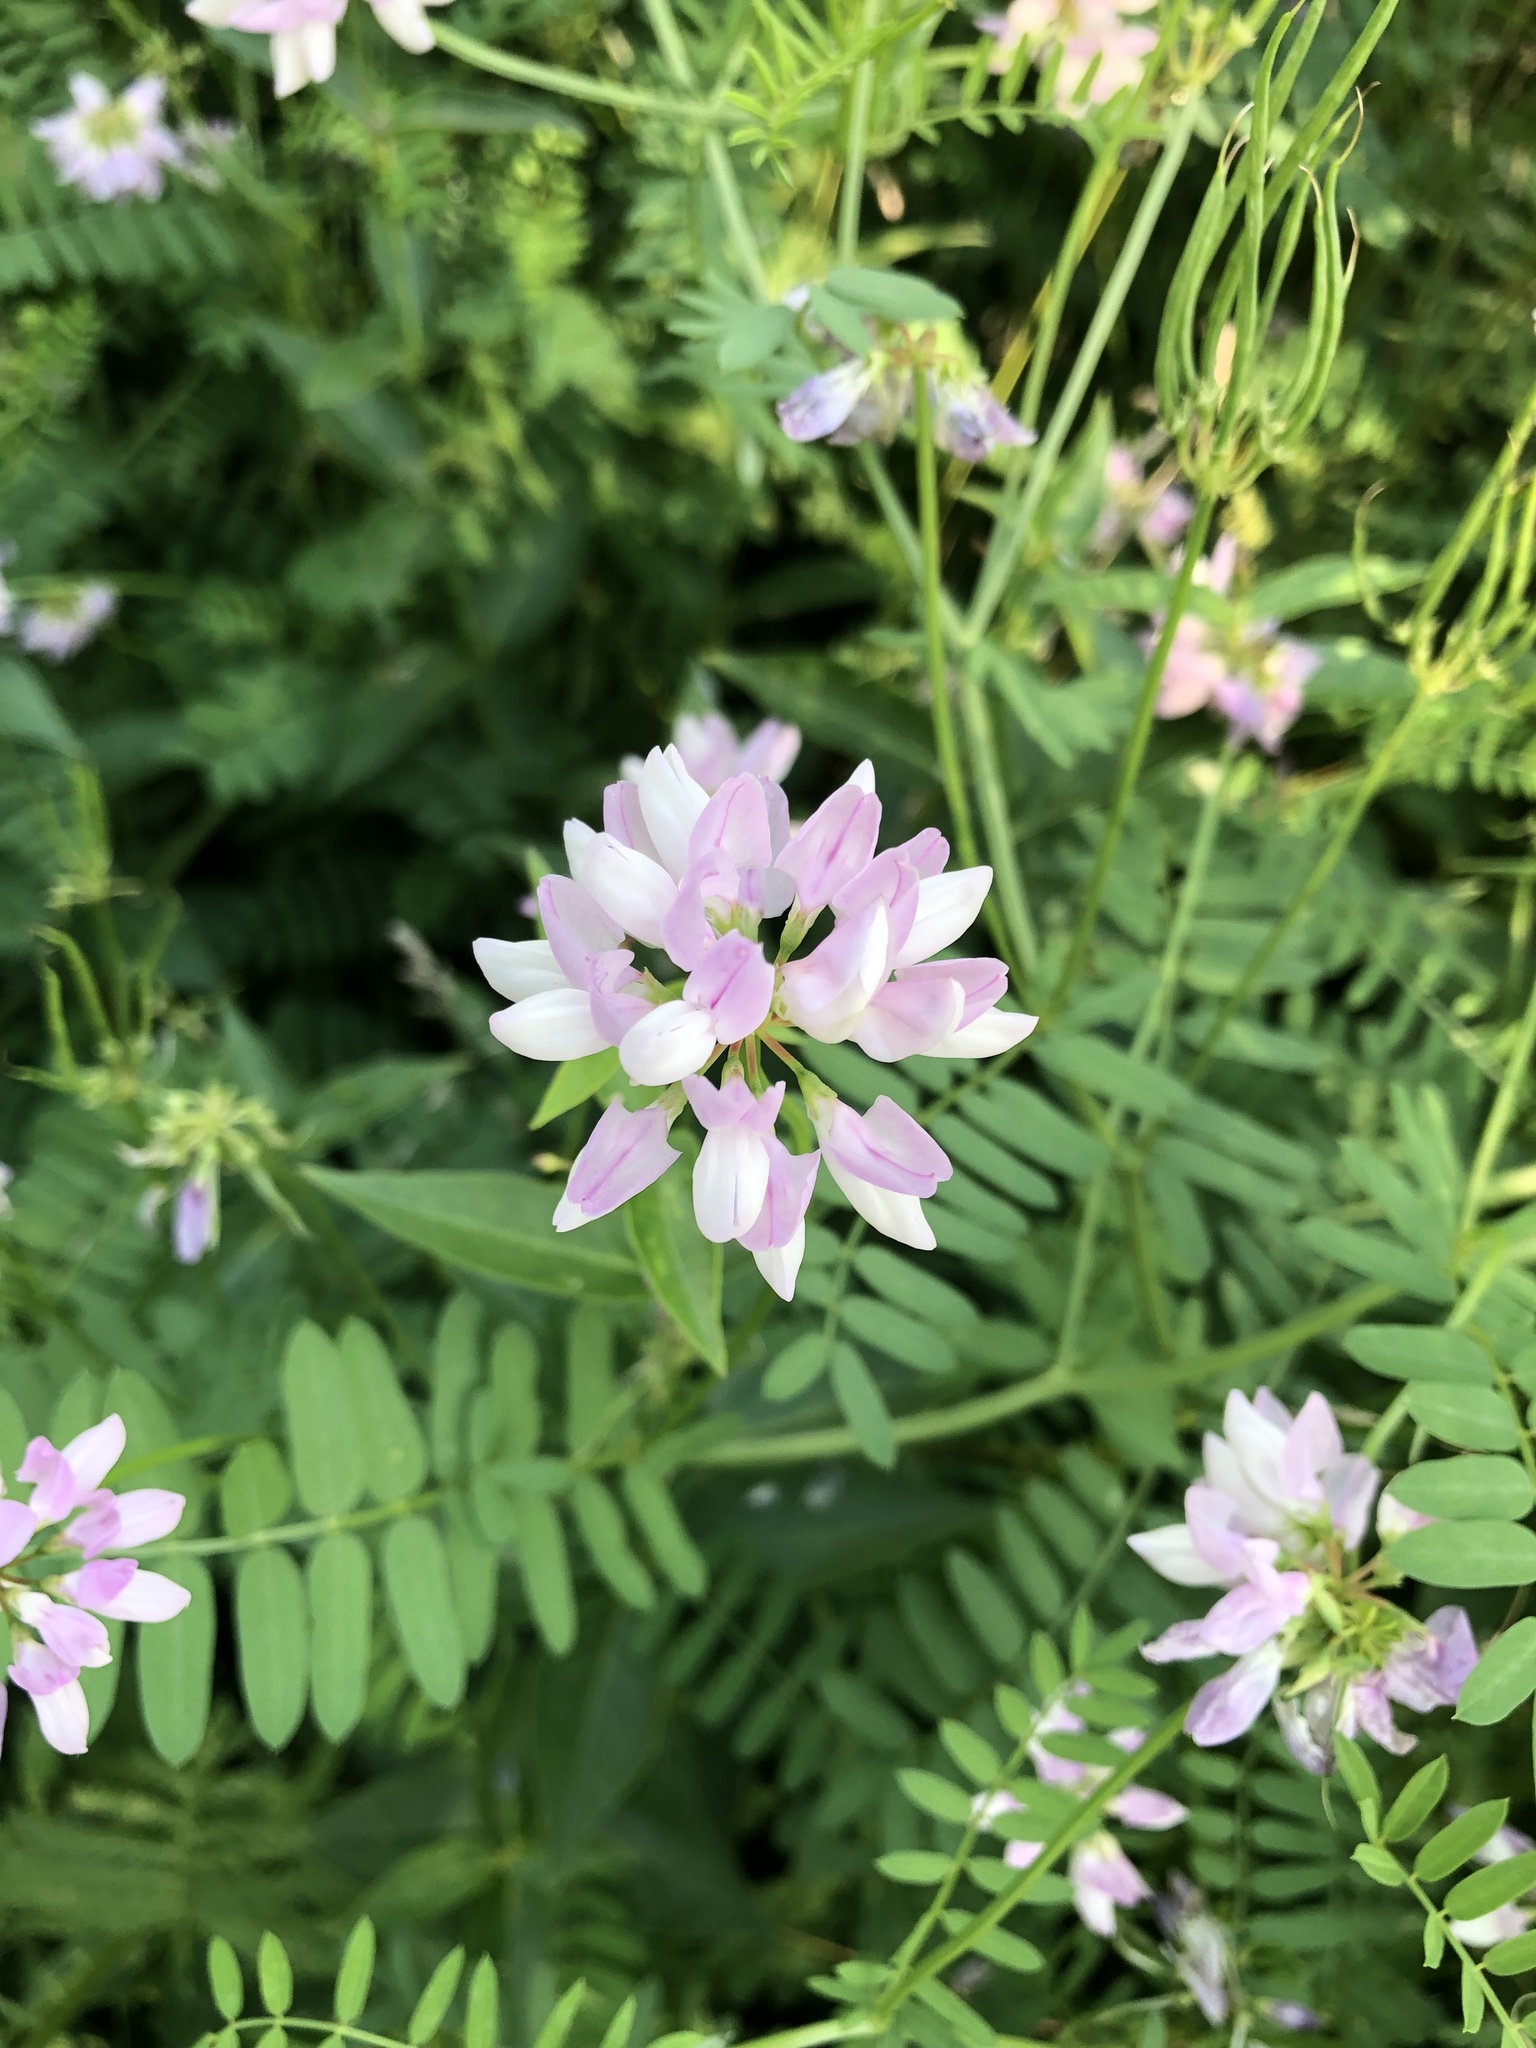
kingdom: Plantae
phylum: Tracheophyta
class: Magnoliopsida
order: Fabales
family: Fabaceae
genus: Coronilla
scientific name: Coronilla varia
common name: Crownvetch
